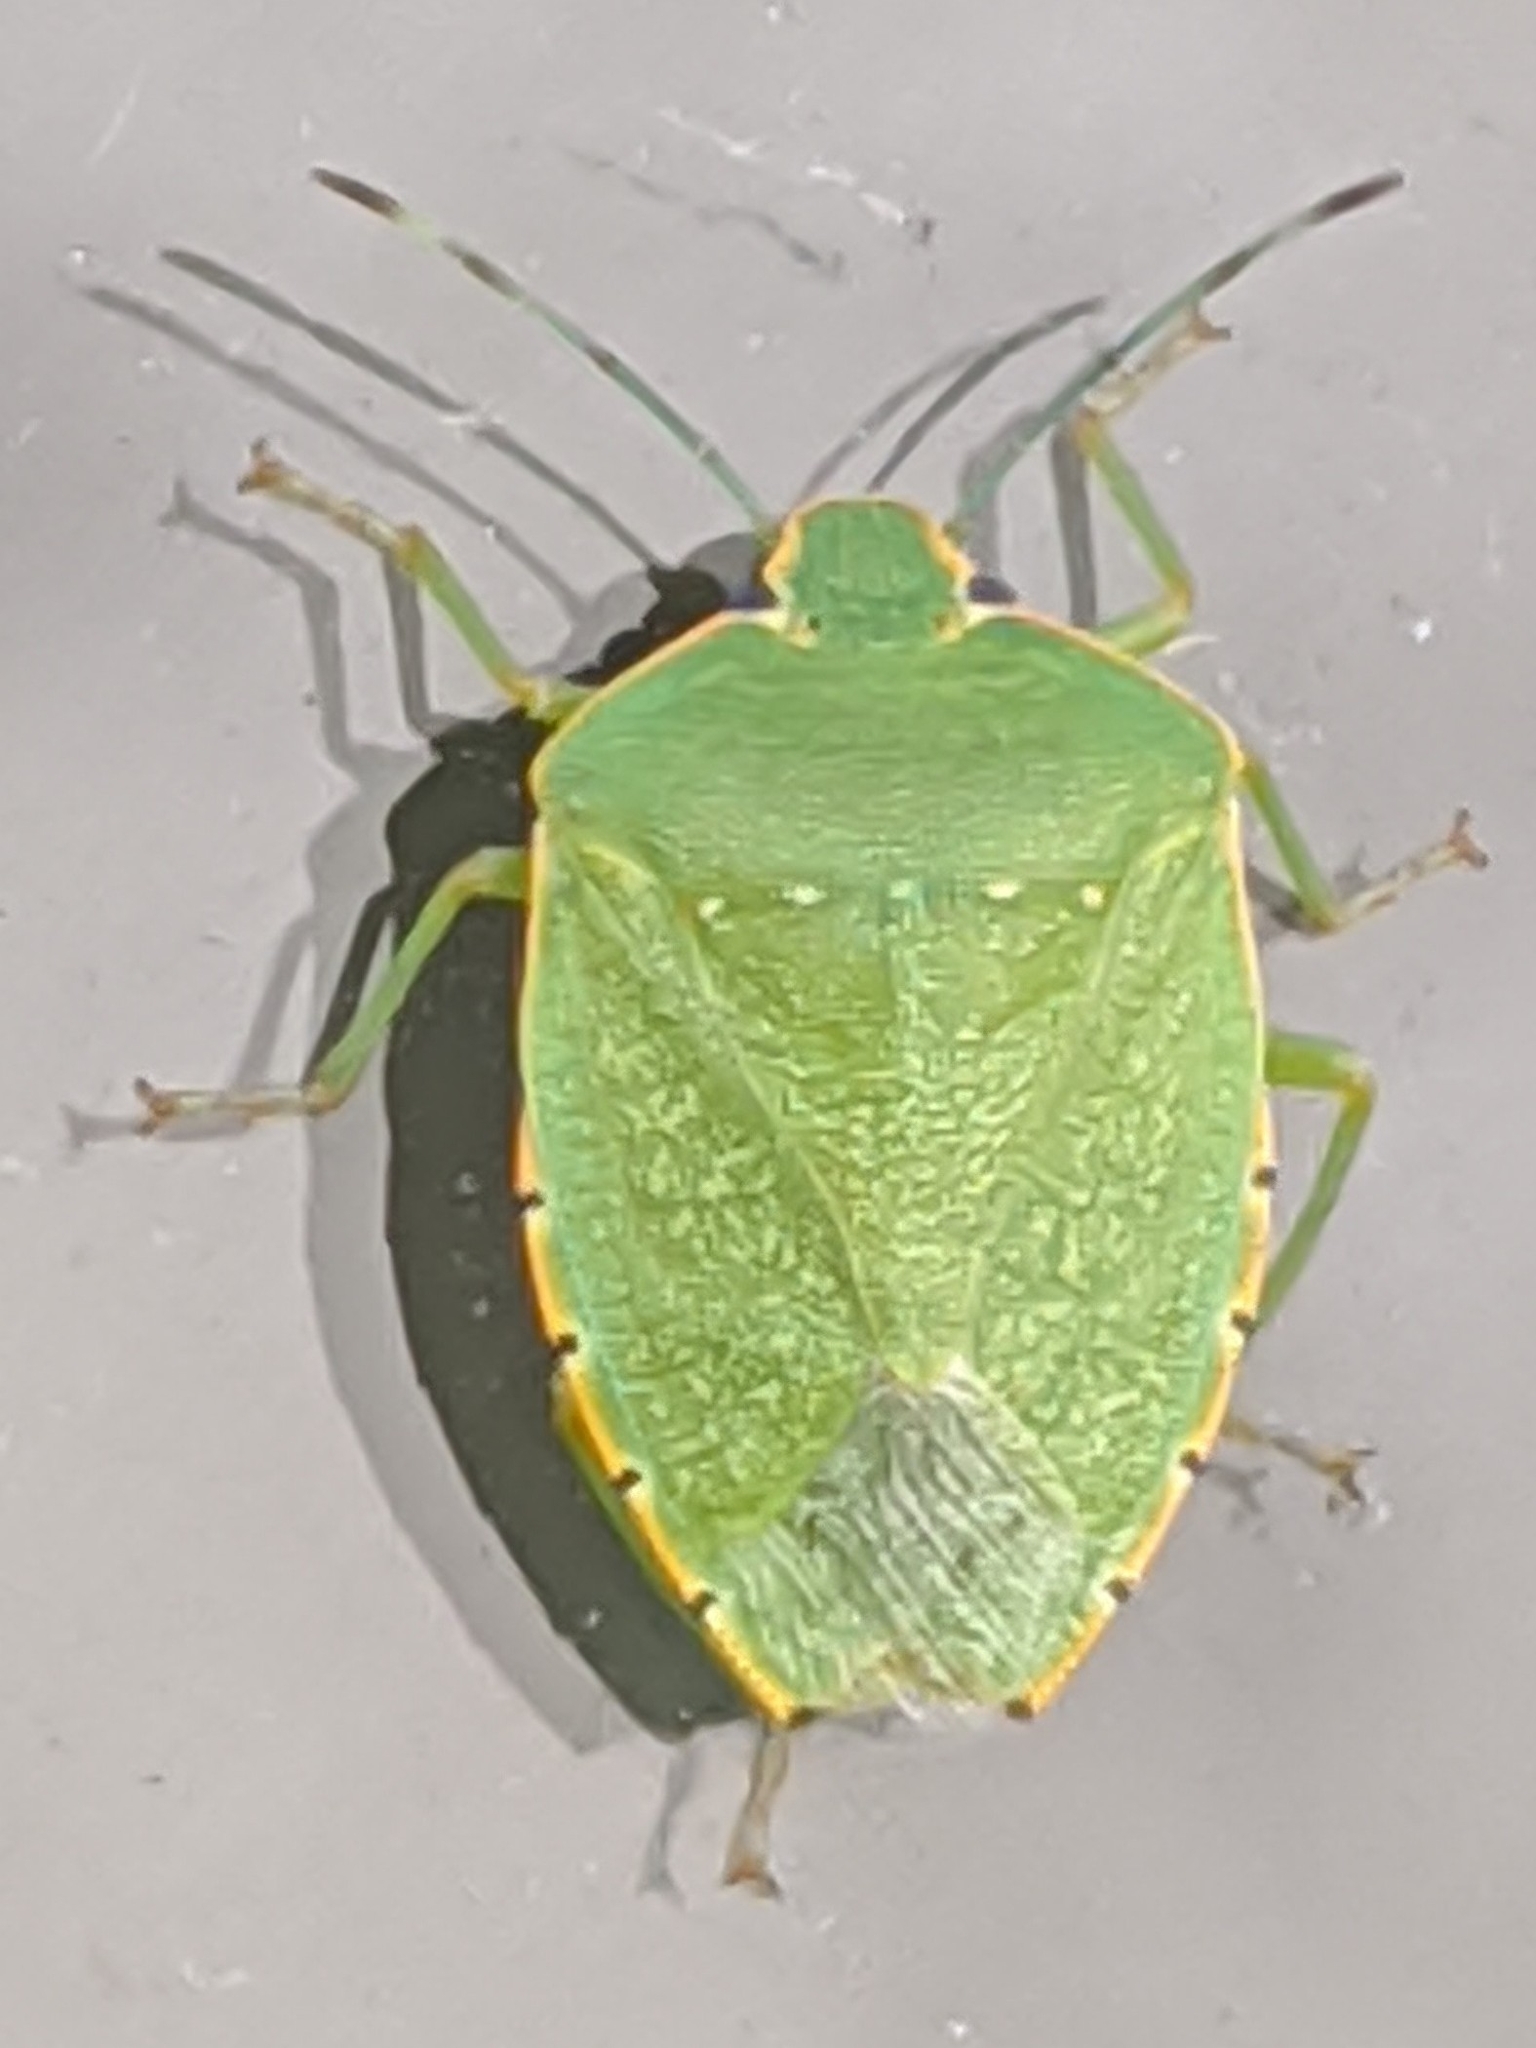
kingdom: Animalia
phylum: Arthropoda
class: Insecta
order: Hemiptera
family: Pentatomidae
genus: Chinavia
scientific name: Chinavia hilaris
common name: Green stink bug
